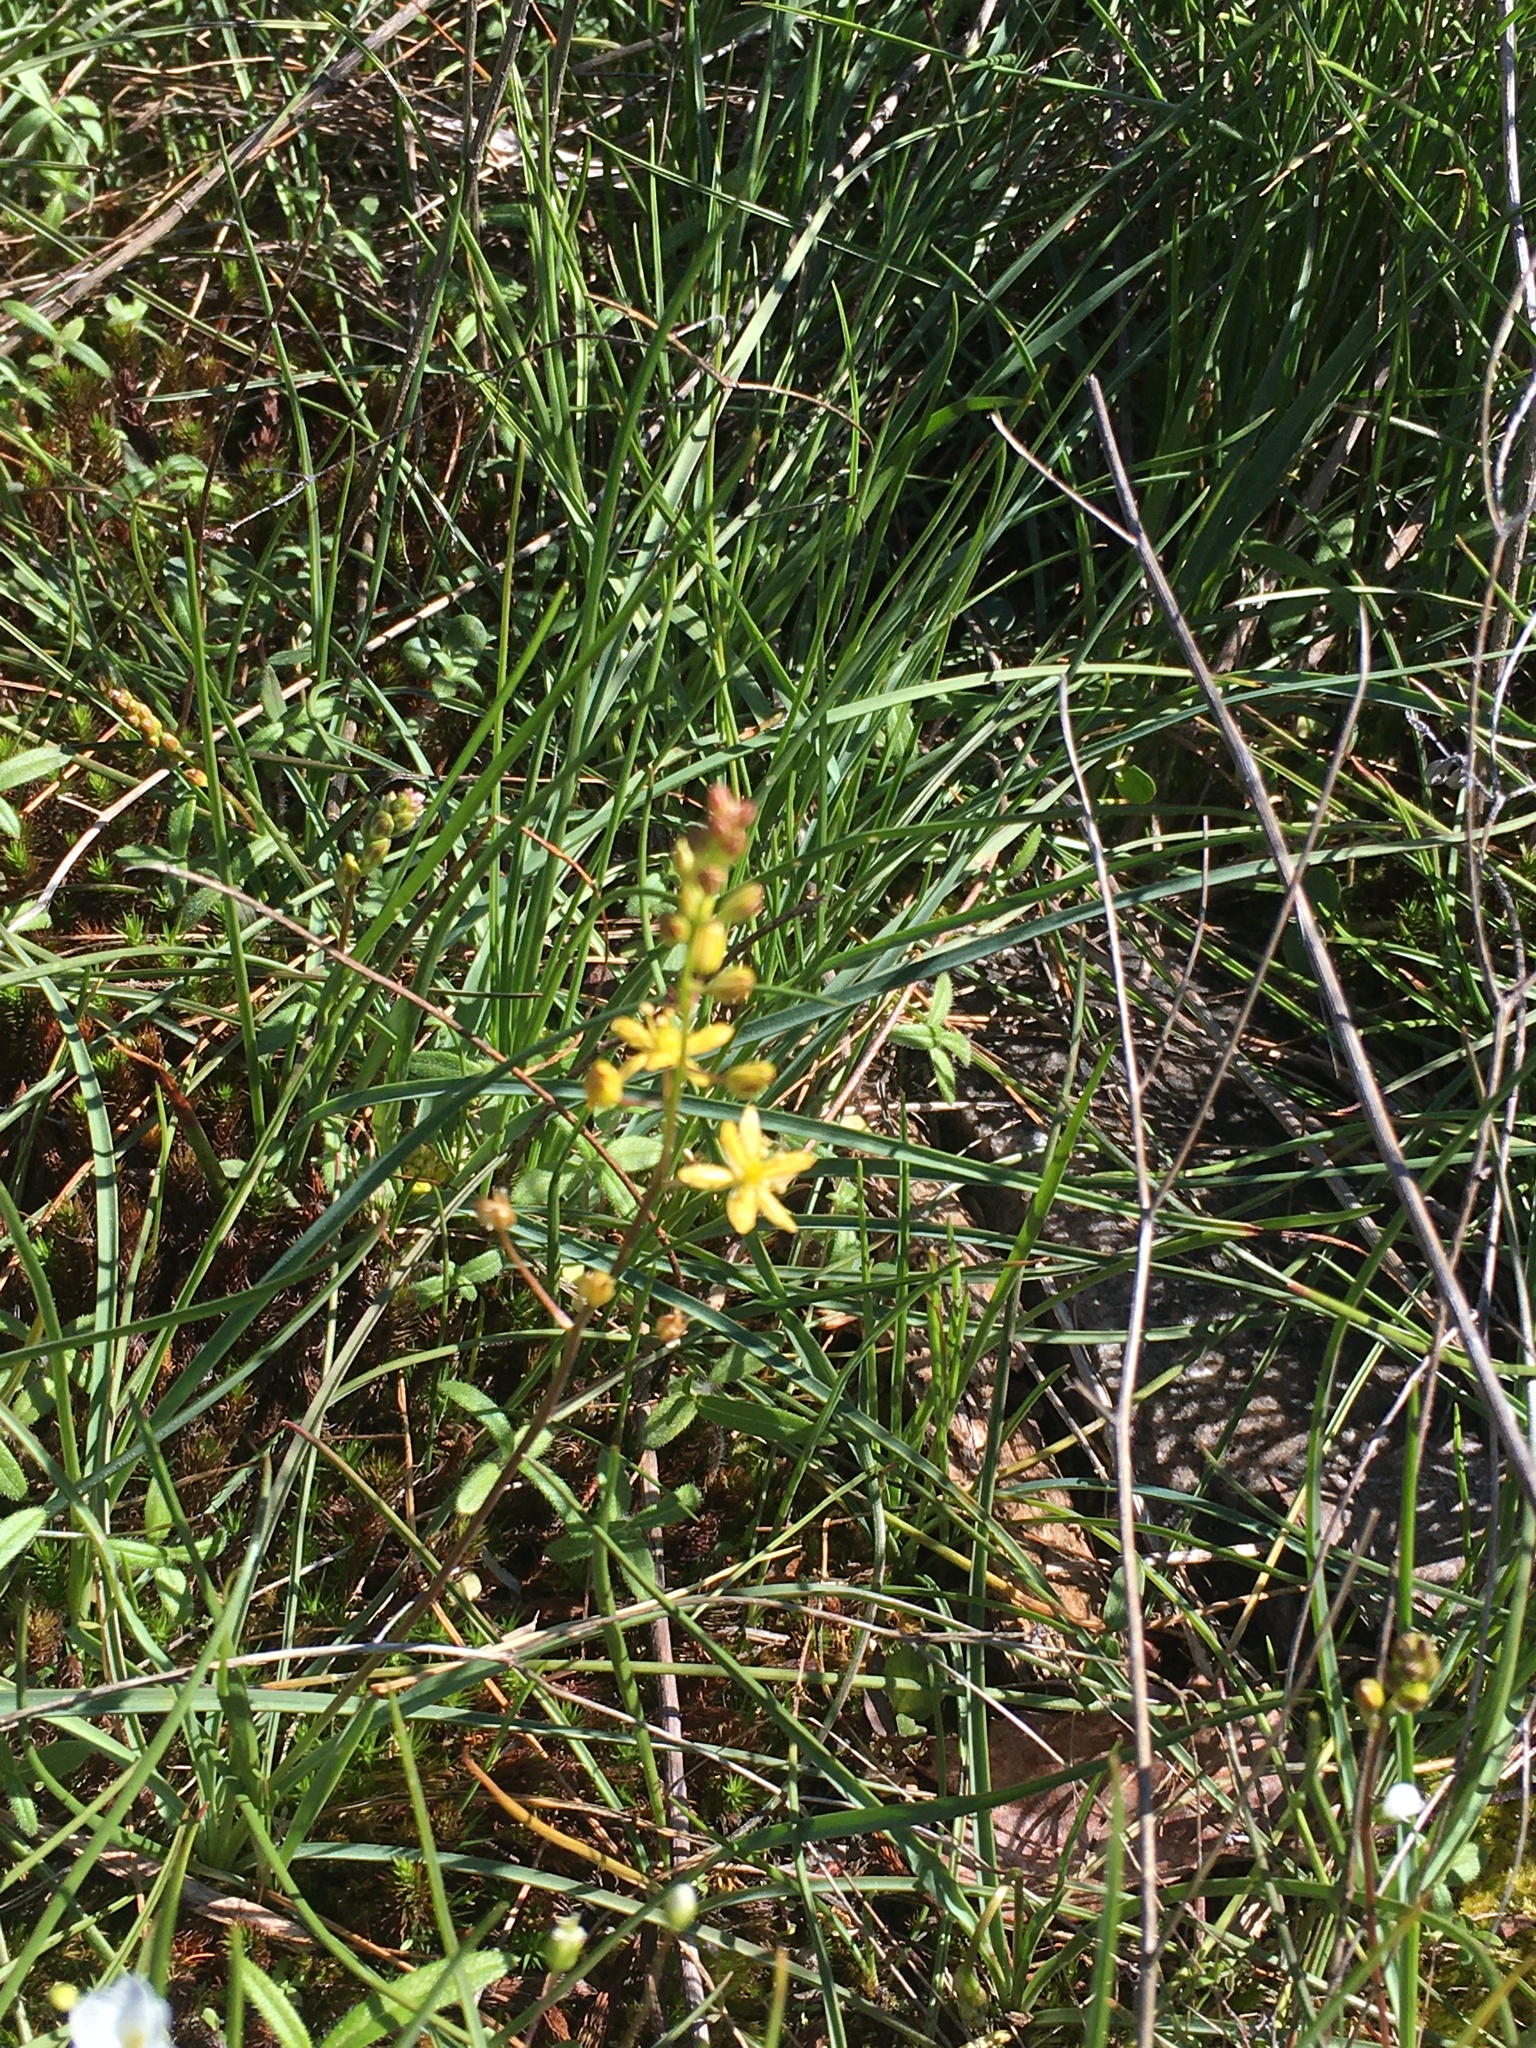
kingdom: Plantae
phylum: Tracheophyta
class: Liliopsida
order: Asparagales
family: Asparagaceae
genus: Schoenolirion
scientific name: Schoenolirion croceum
